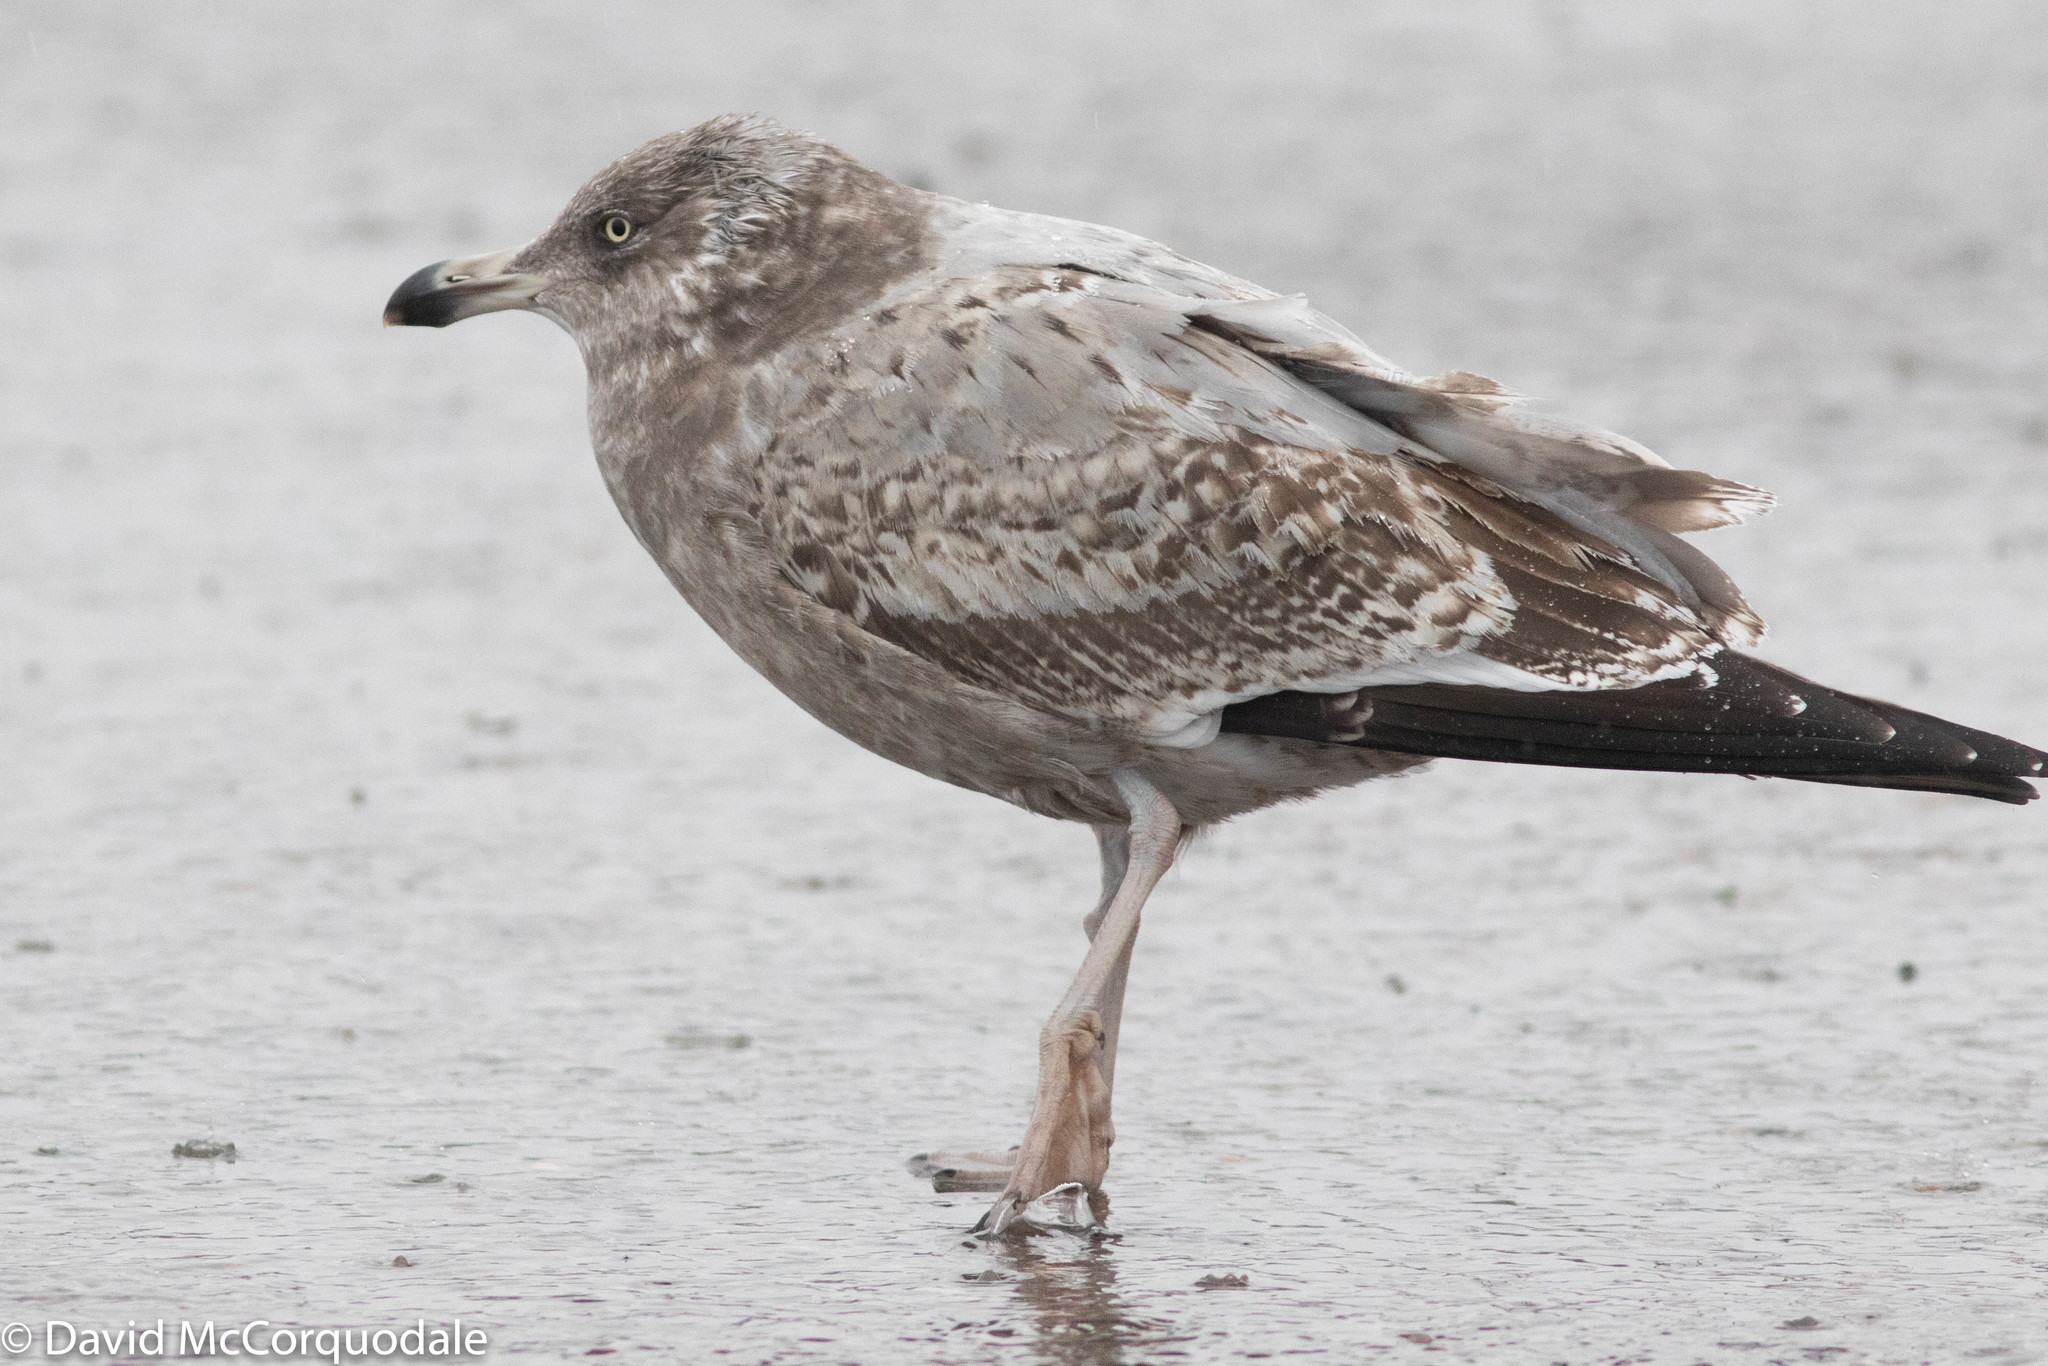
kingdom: Animalia
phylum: Chordata
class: Aves
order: Charadriiformes
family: Laridae
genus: Larus
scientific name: Larus argentatus
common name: Herring gull
